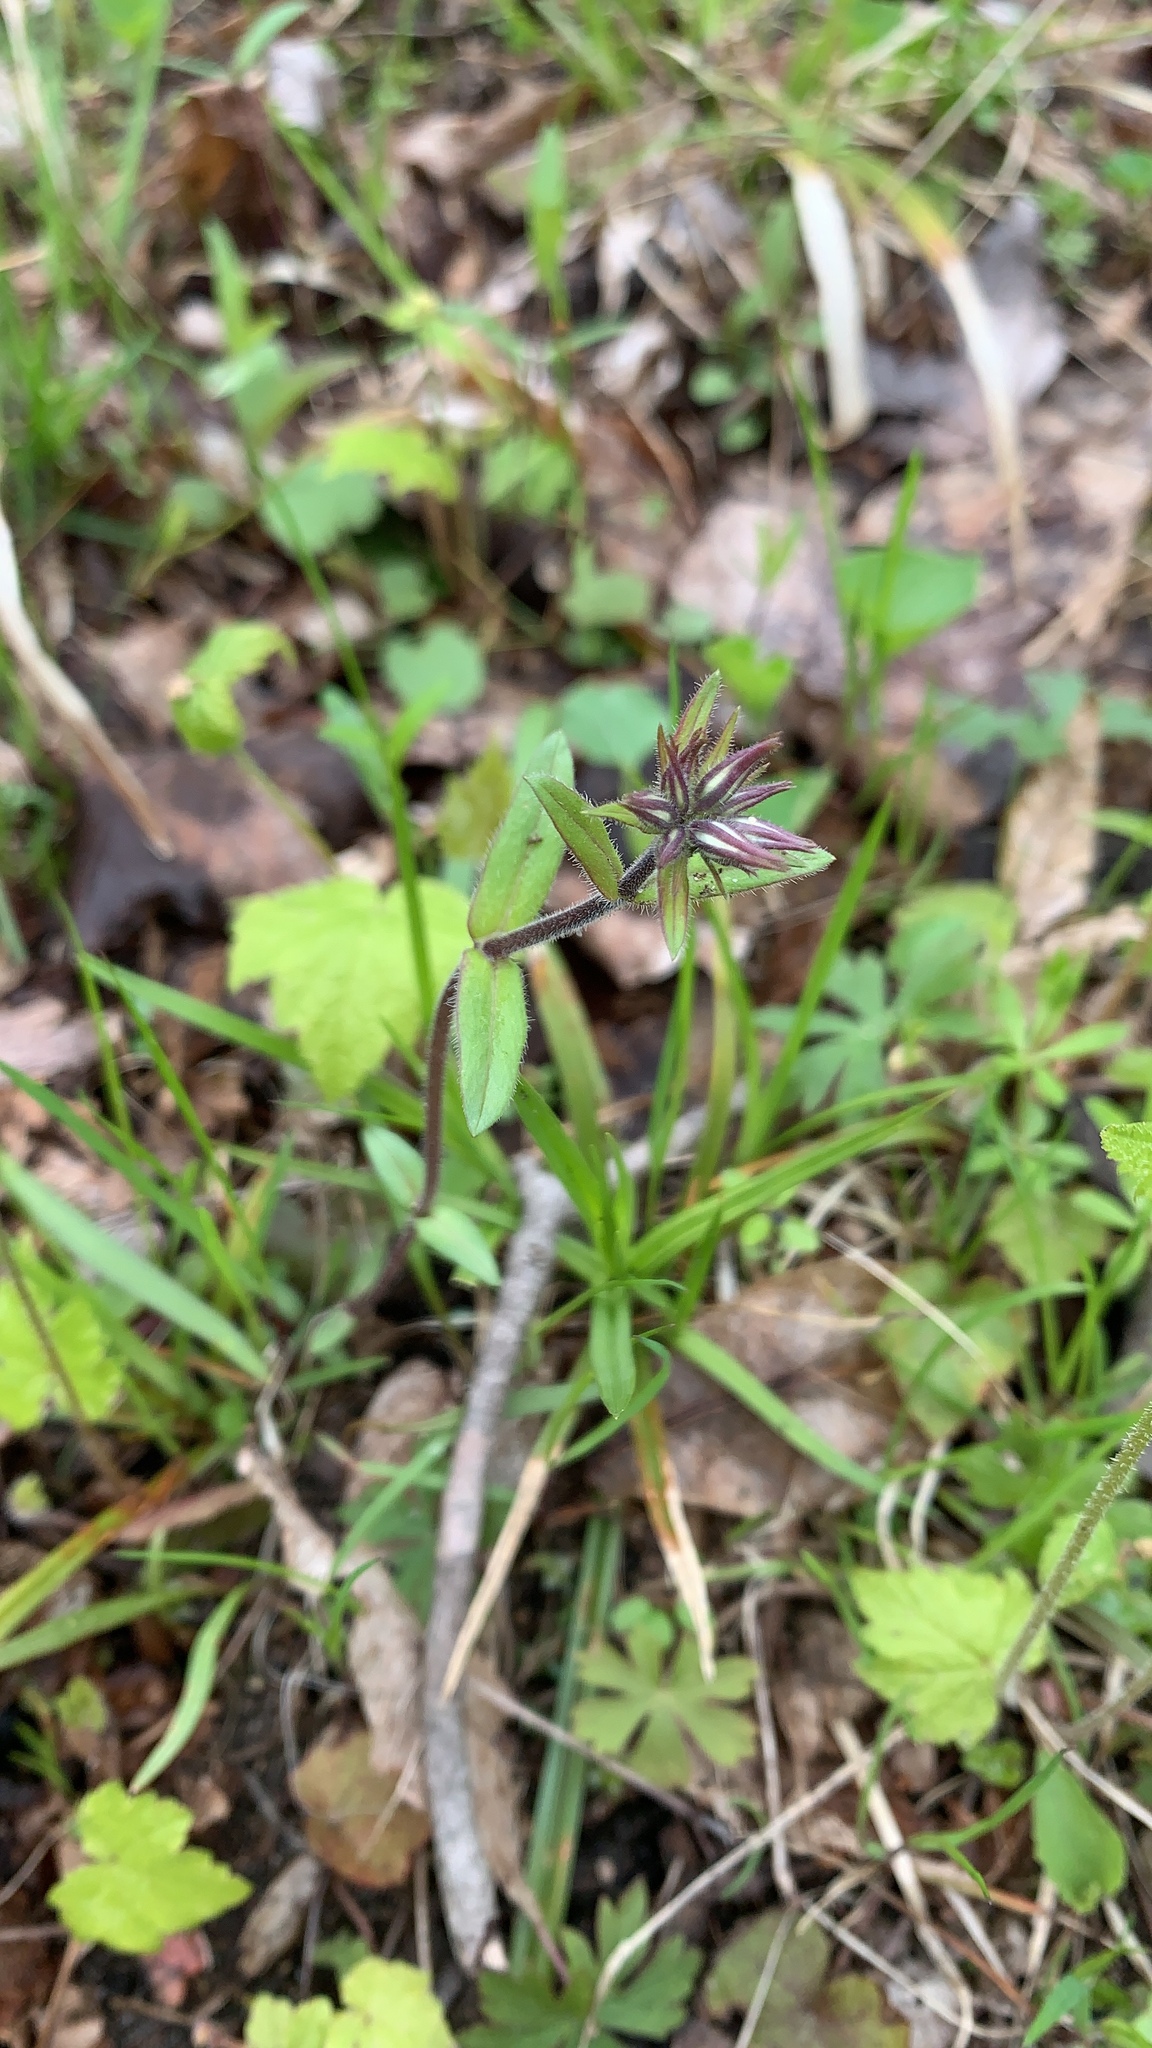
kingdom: Plantae
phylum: Tracheophyta
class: Magnoliopsida
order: Ericales
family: Polemoniaceae
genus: Phlox
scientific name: Phlox divaricata
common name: Blue phlox
